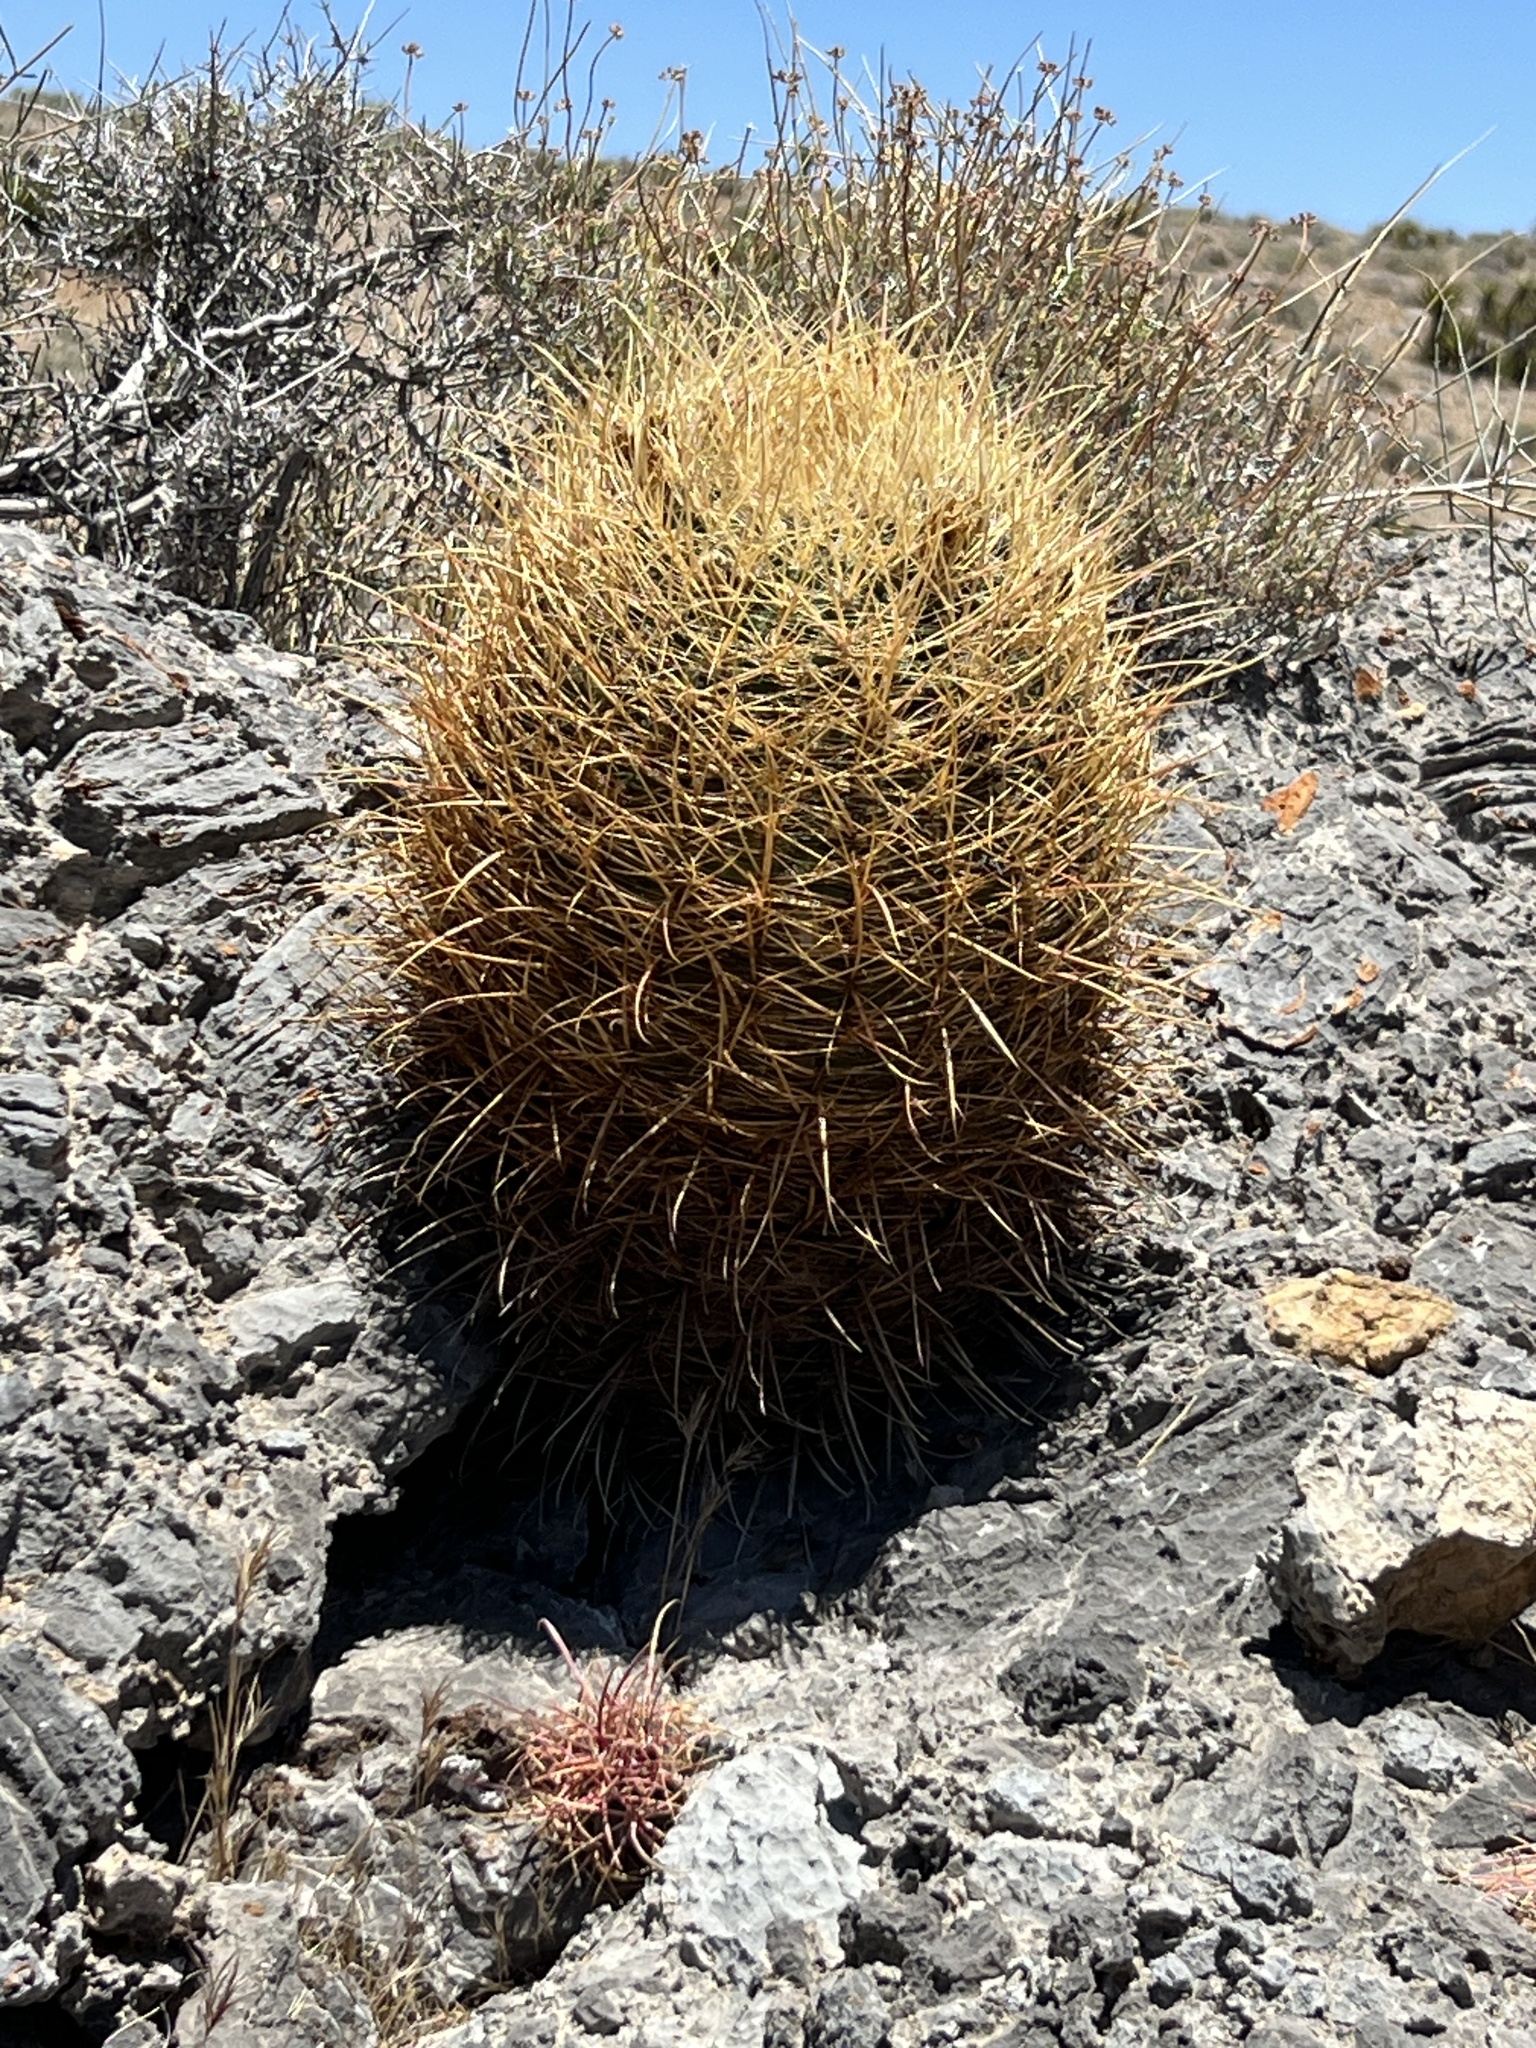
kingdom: Plantae
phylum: Tracheophyta
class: Magnoliopsida
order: Caryophyllales
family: Cactaceae
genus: Ferocactus
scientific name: Ferocactus cylindraceus
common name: California barrel cactus
